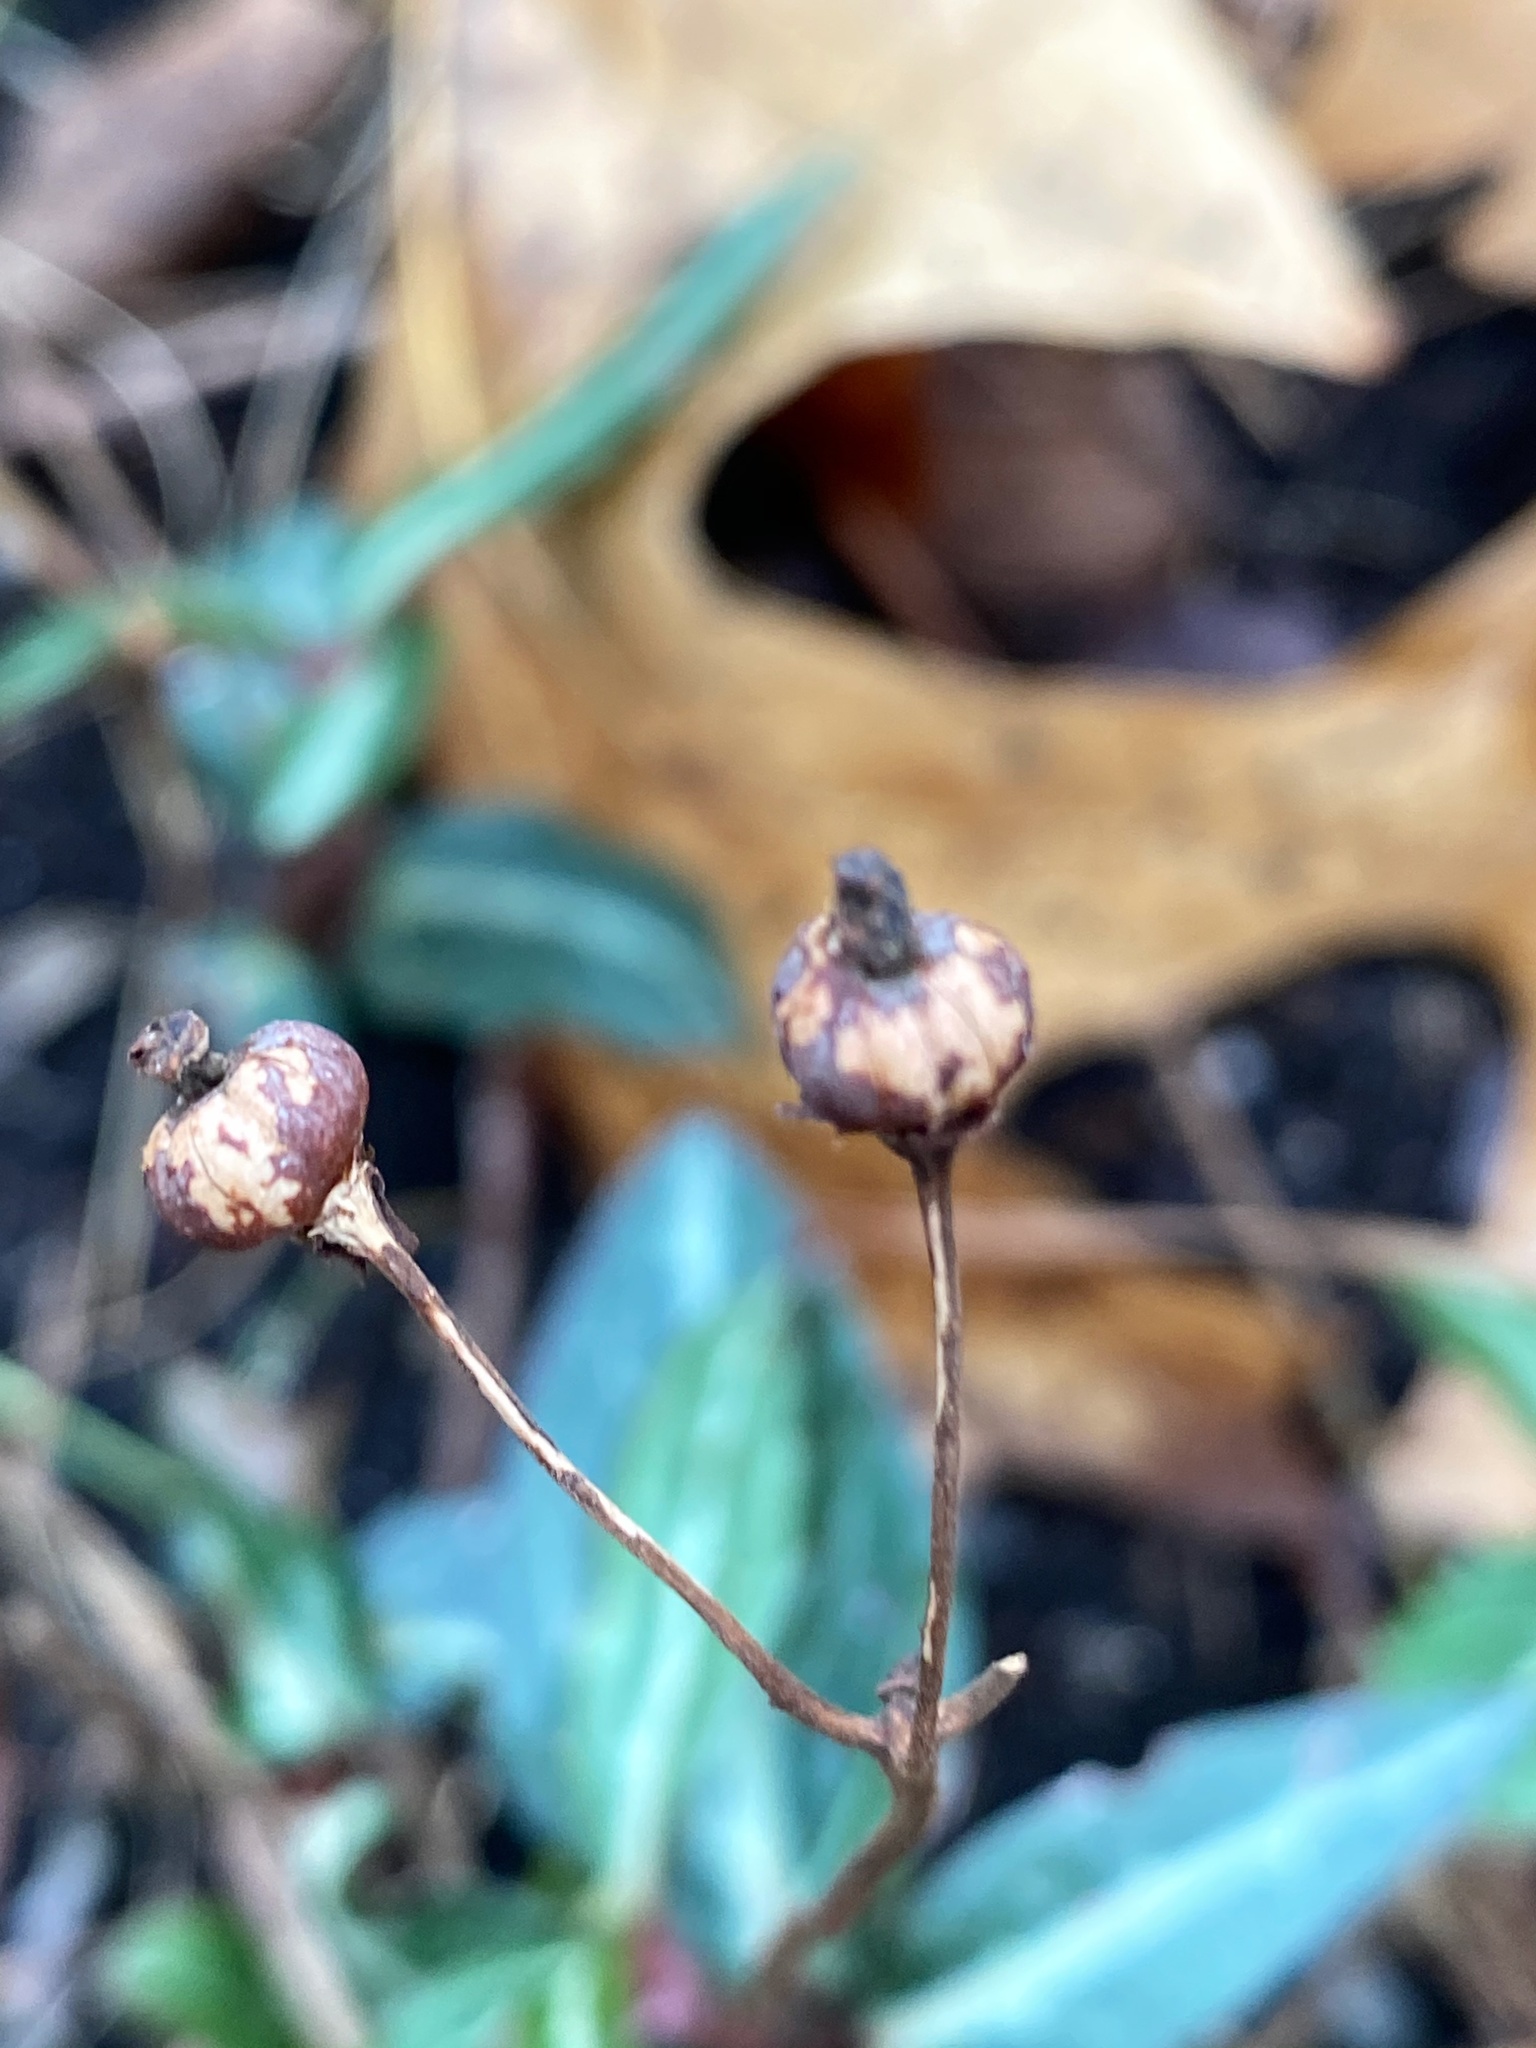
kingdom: Plantae
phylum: Tracheophyta
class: Magnoliopsida
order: Ericales
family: Ericaceae
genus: Chimaphila
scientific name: Chimaphila maculata
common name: Spotted pipsissewa
